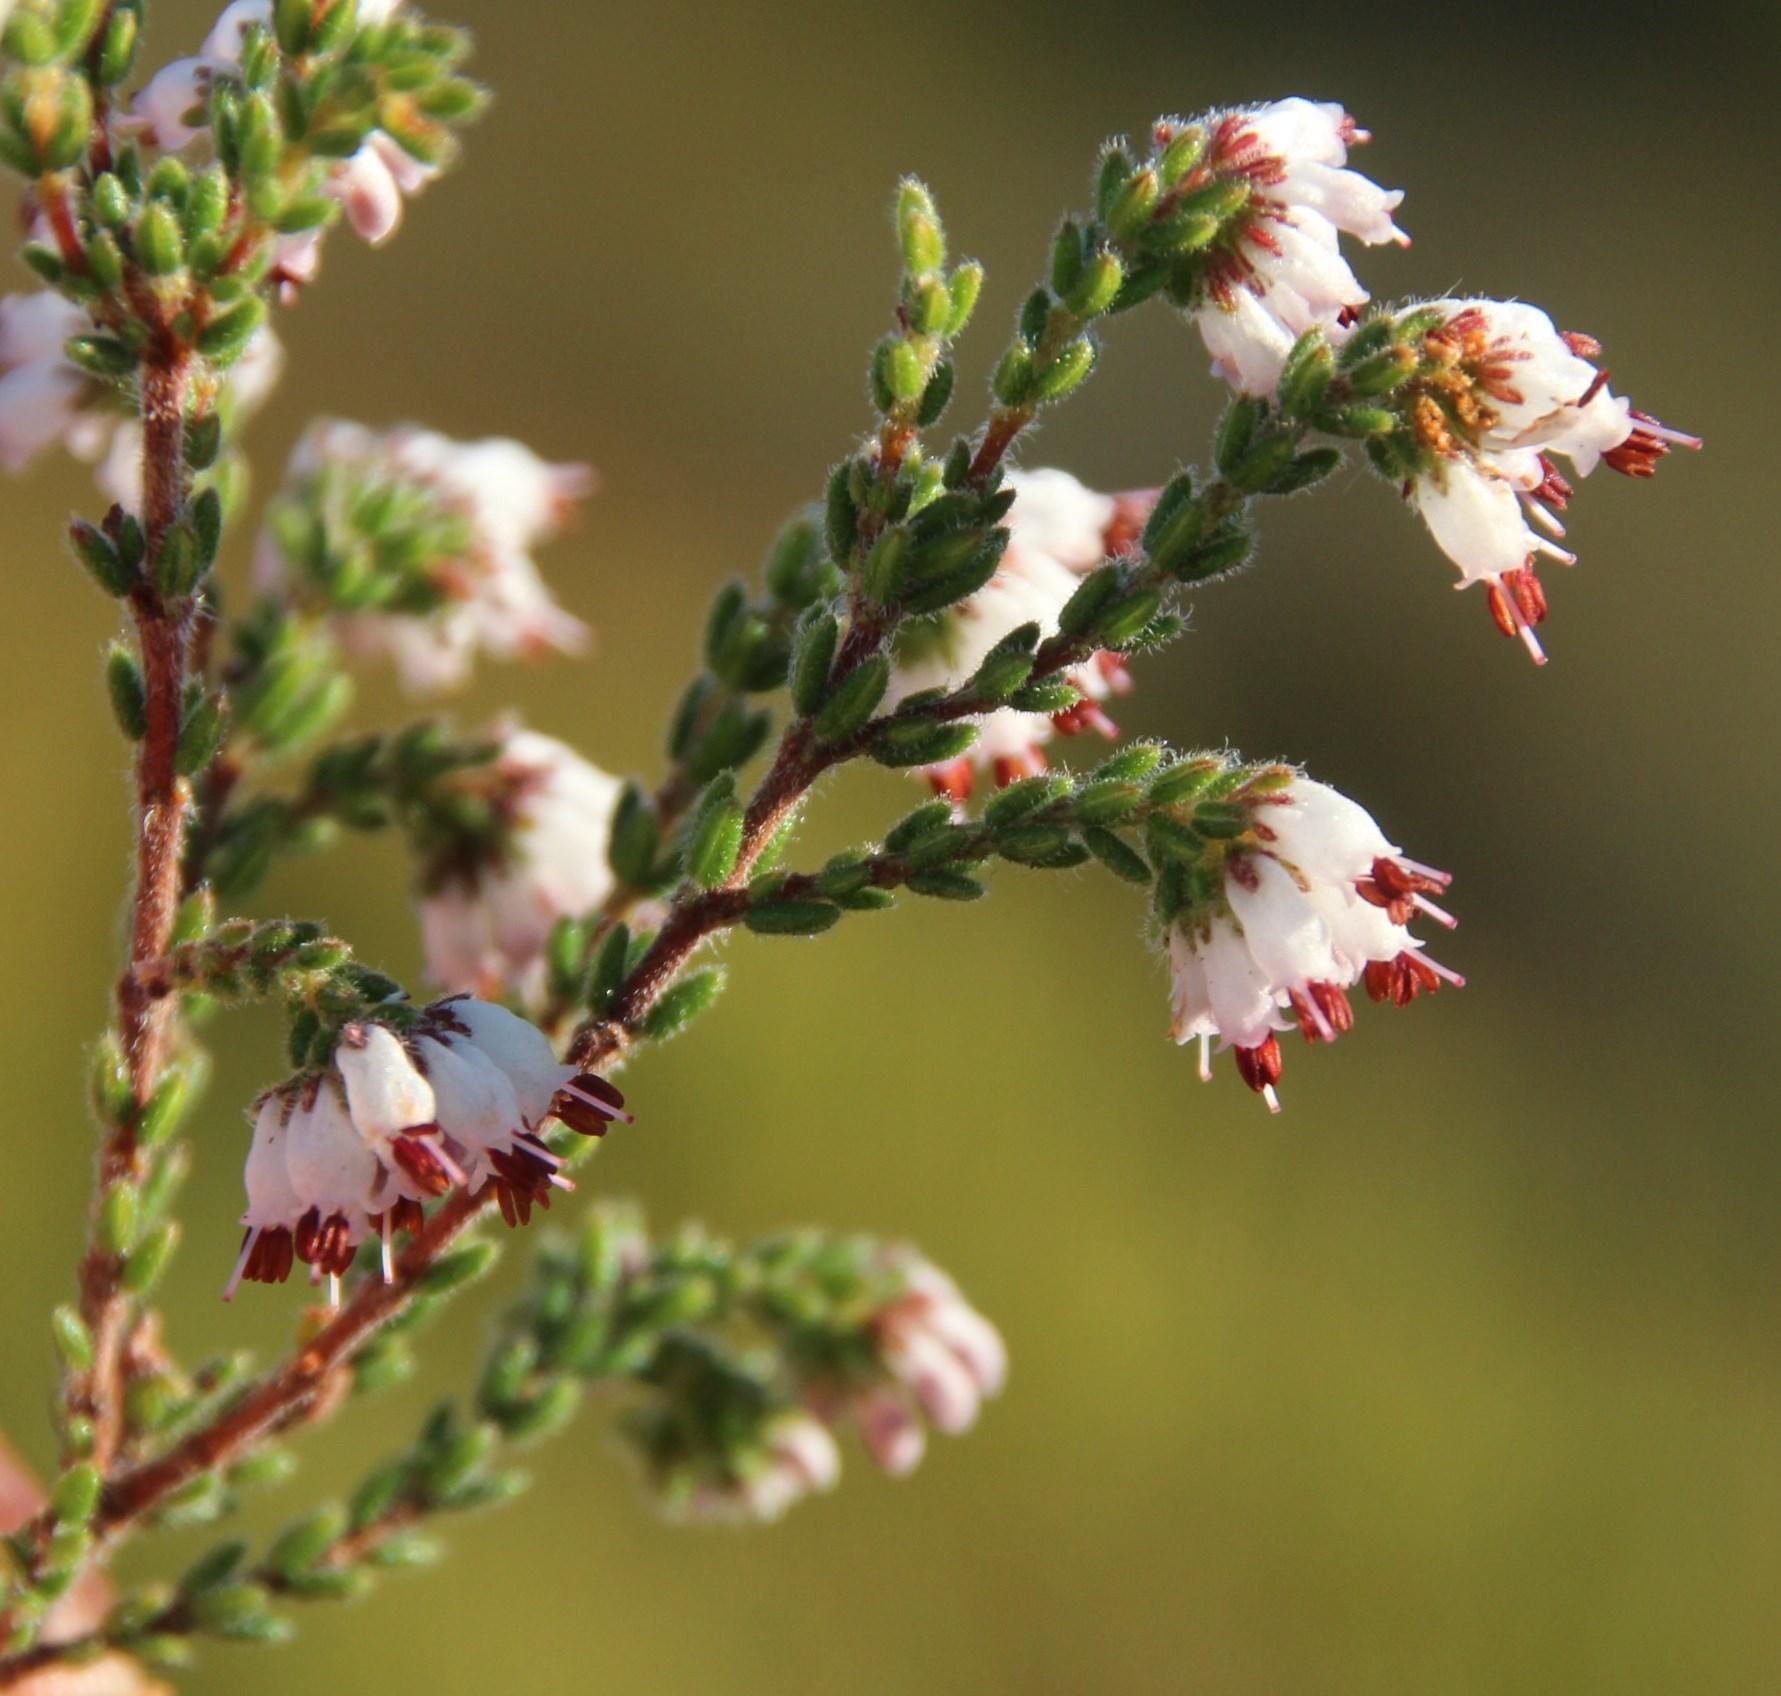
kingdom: Plantae
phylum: Tracheophyta
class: Magnoliopsida
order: Ericales
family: Ericaceae
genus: Erica
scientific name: Erica ericoides
